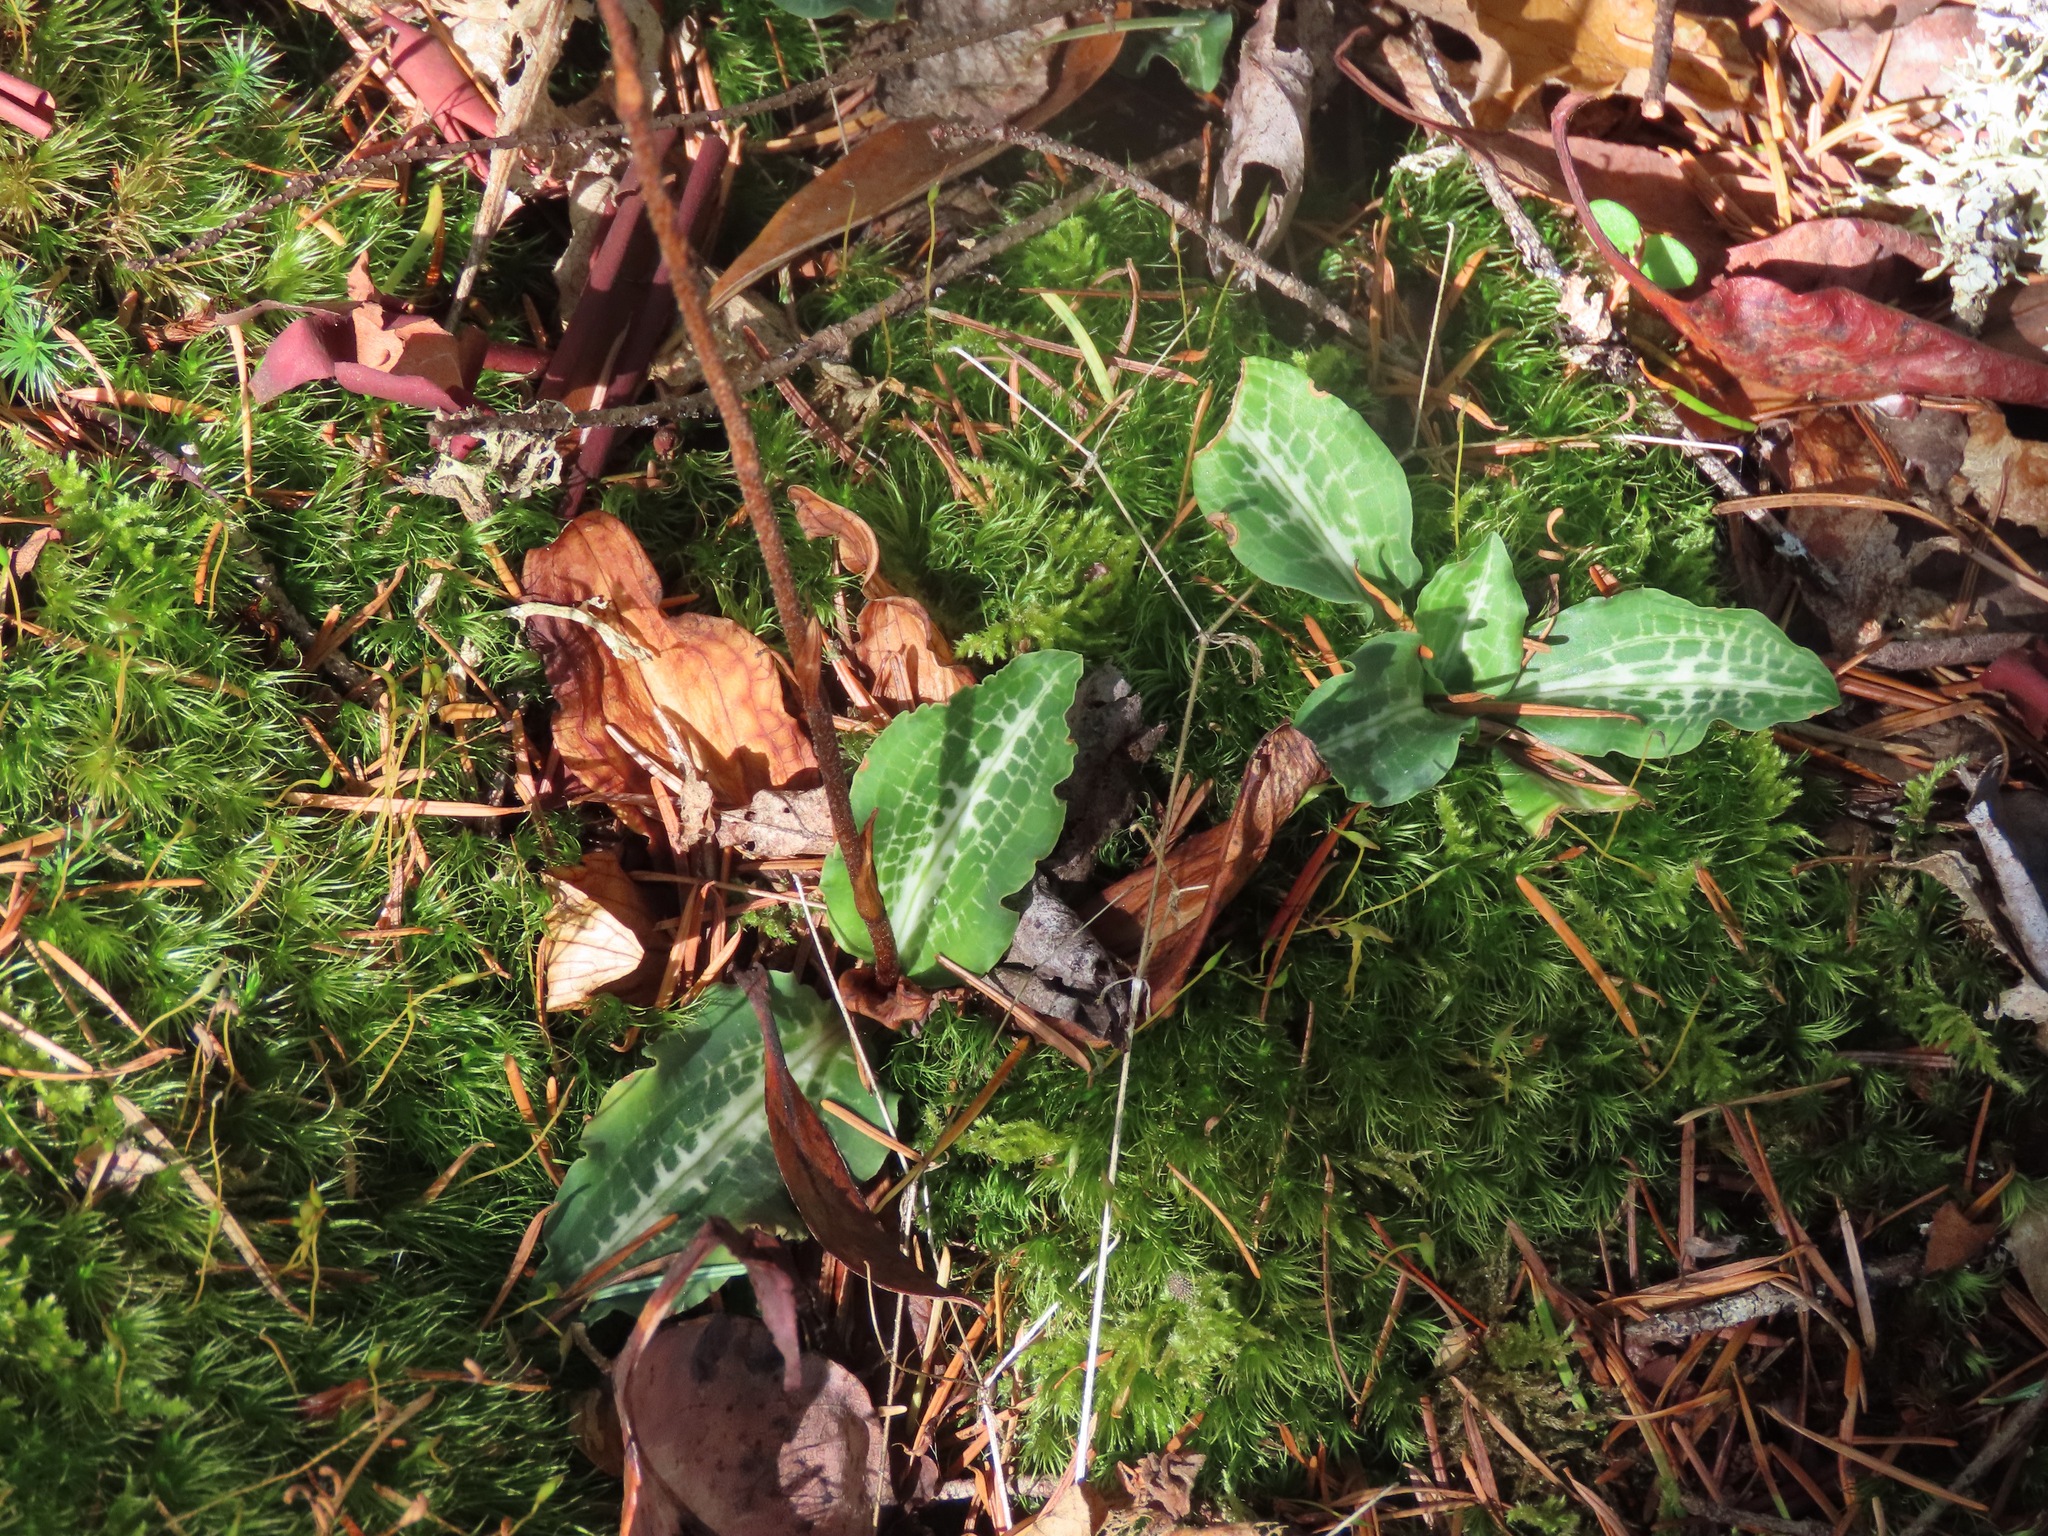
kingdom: Plantae
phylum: Tracheophyta
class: Liliopsida
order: Asparagales
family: Orchidaceae
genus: Goodyera
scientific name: Goodyera oblongifolia
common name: Giant rattlesnake-plantain
